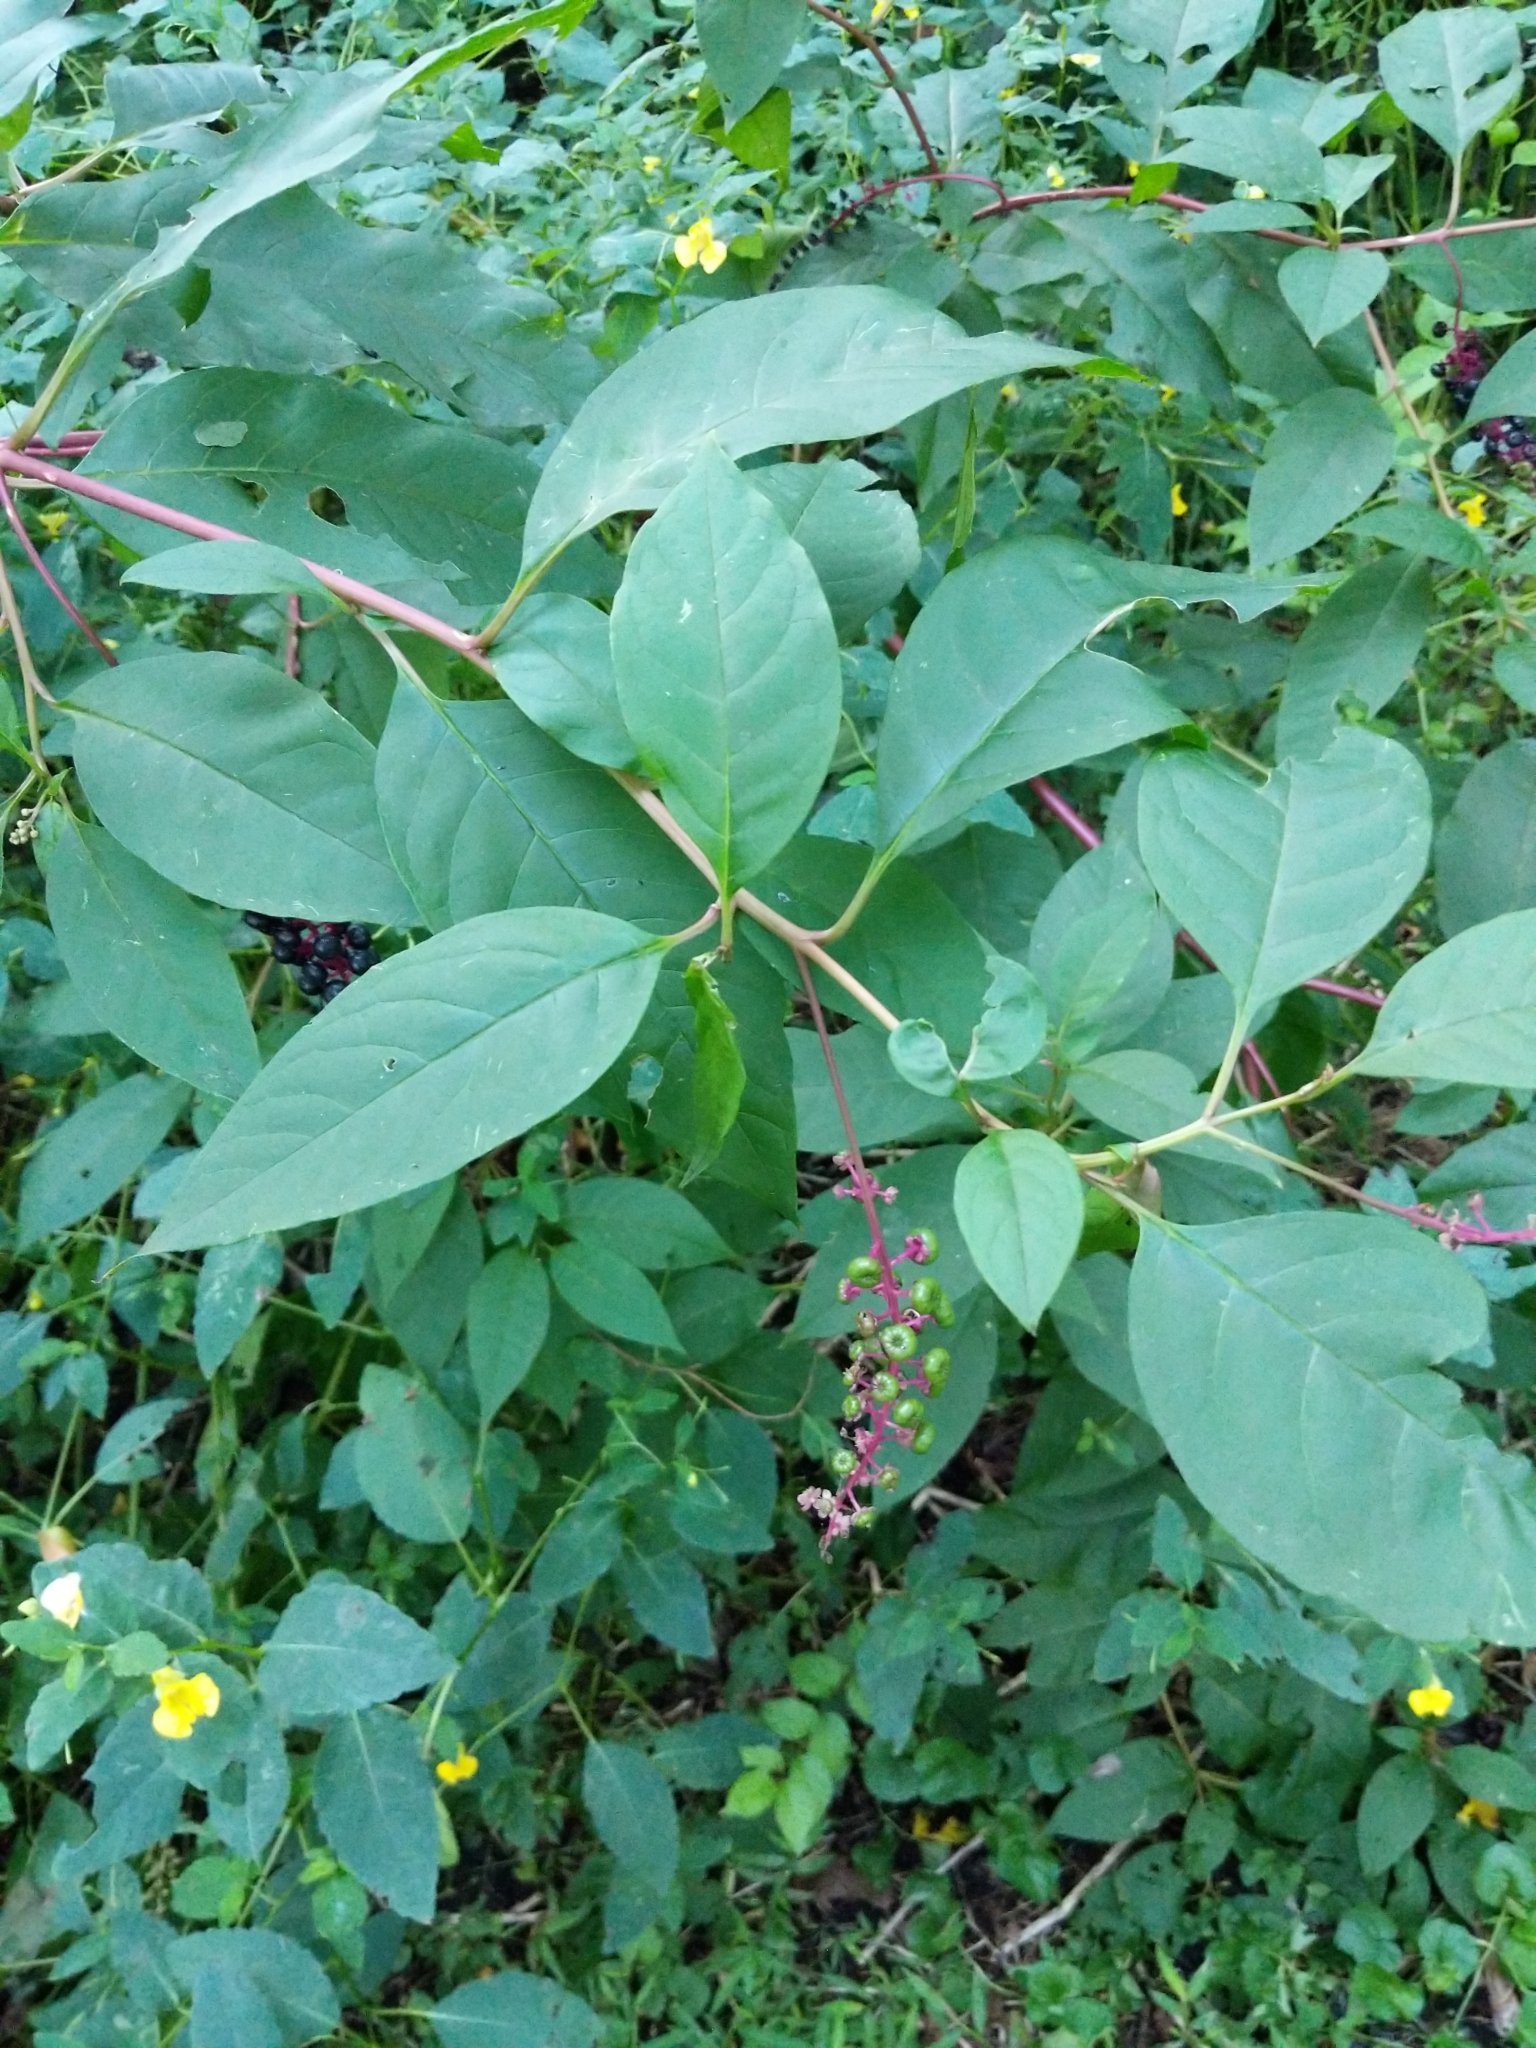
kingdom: Plantae
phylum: Tracheophyta
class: Magnoliopsida
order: Caryophyllales
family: Phytolaccaceae
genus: Phytolacca
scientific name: Phytolacca americana
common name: American pokeweed
